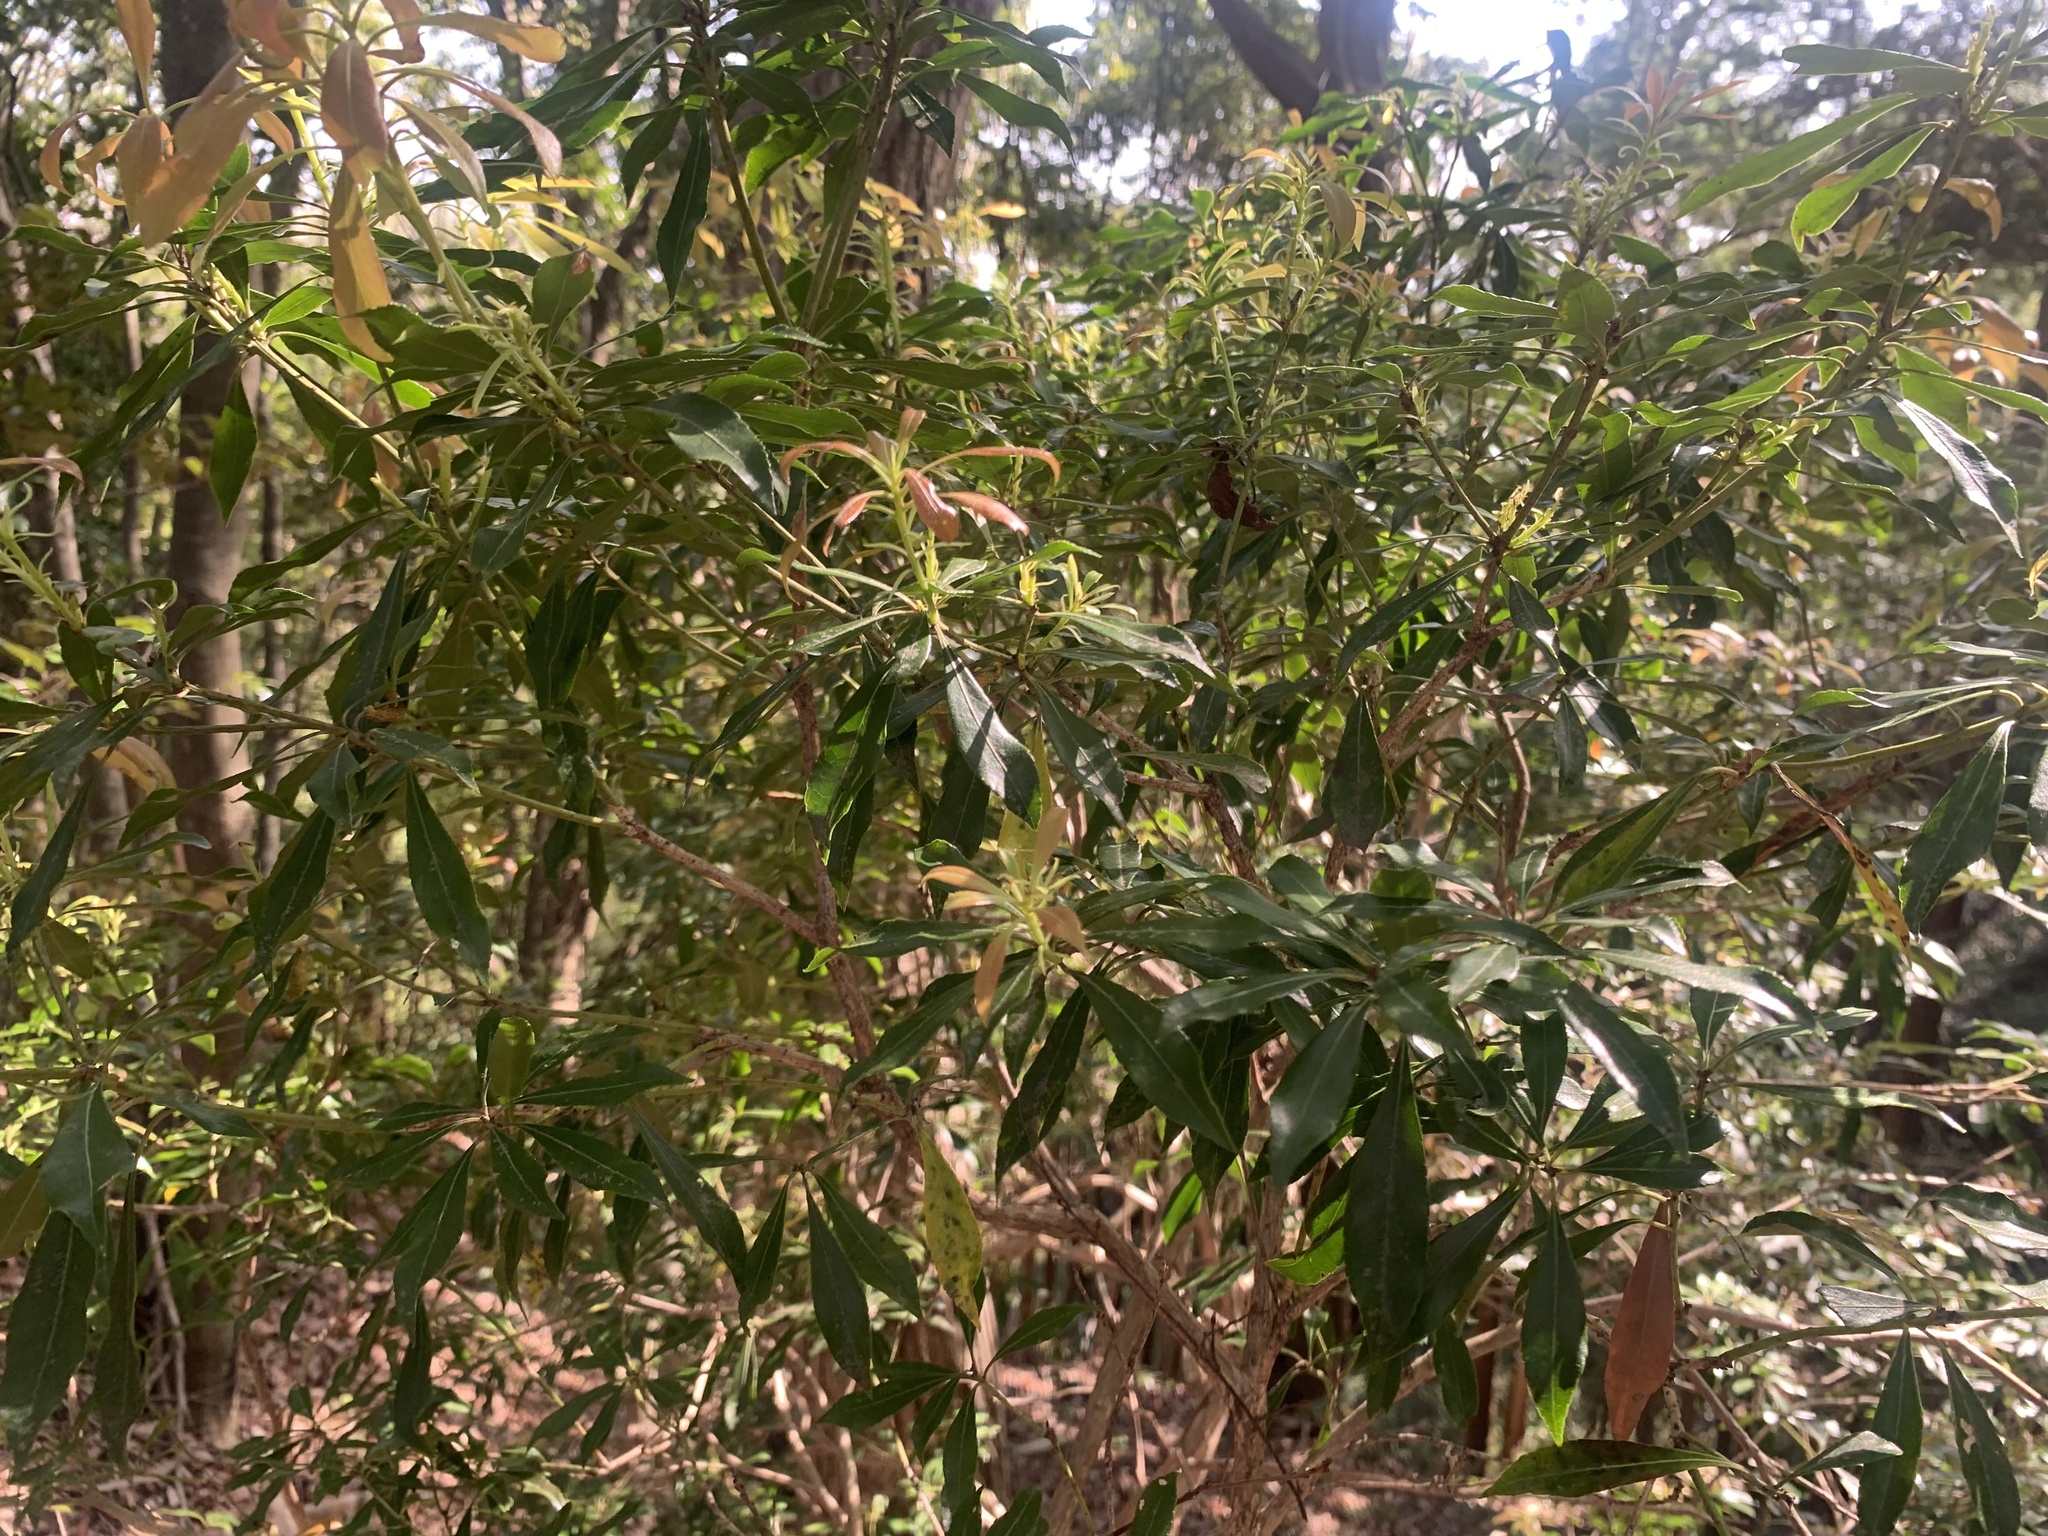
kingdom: Plantae
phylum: Tracheophyta
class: Magnoliopsida
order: Ericales
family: Ericaceae
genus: Pieris
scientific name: Pieris japonica
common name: Japanese pieris
